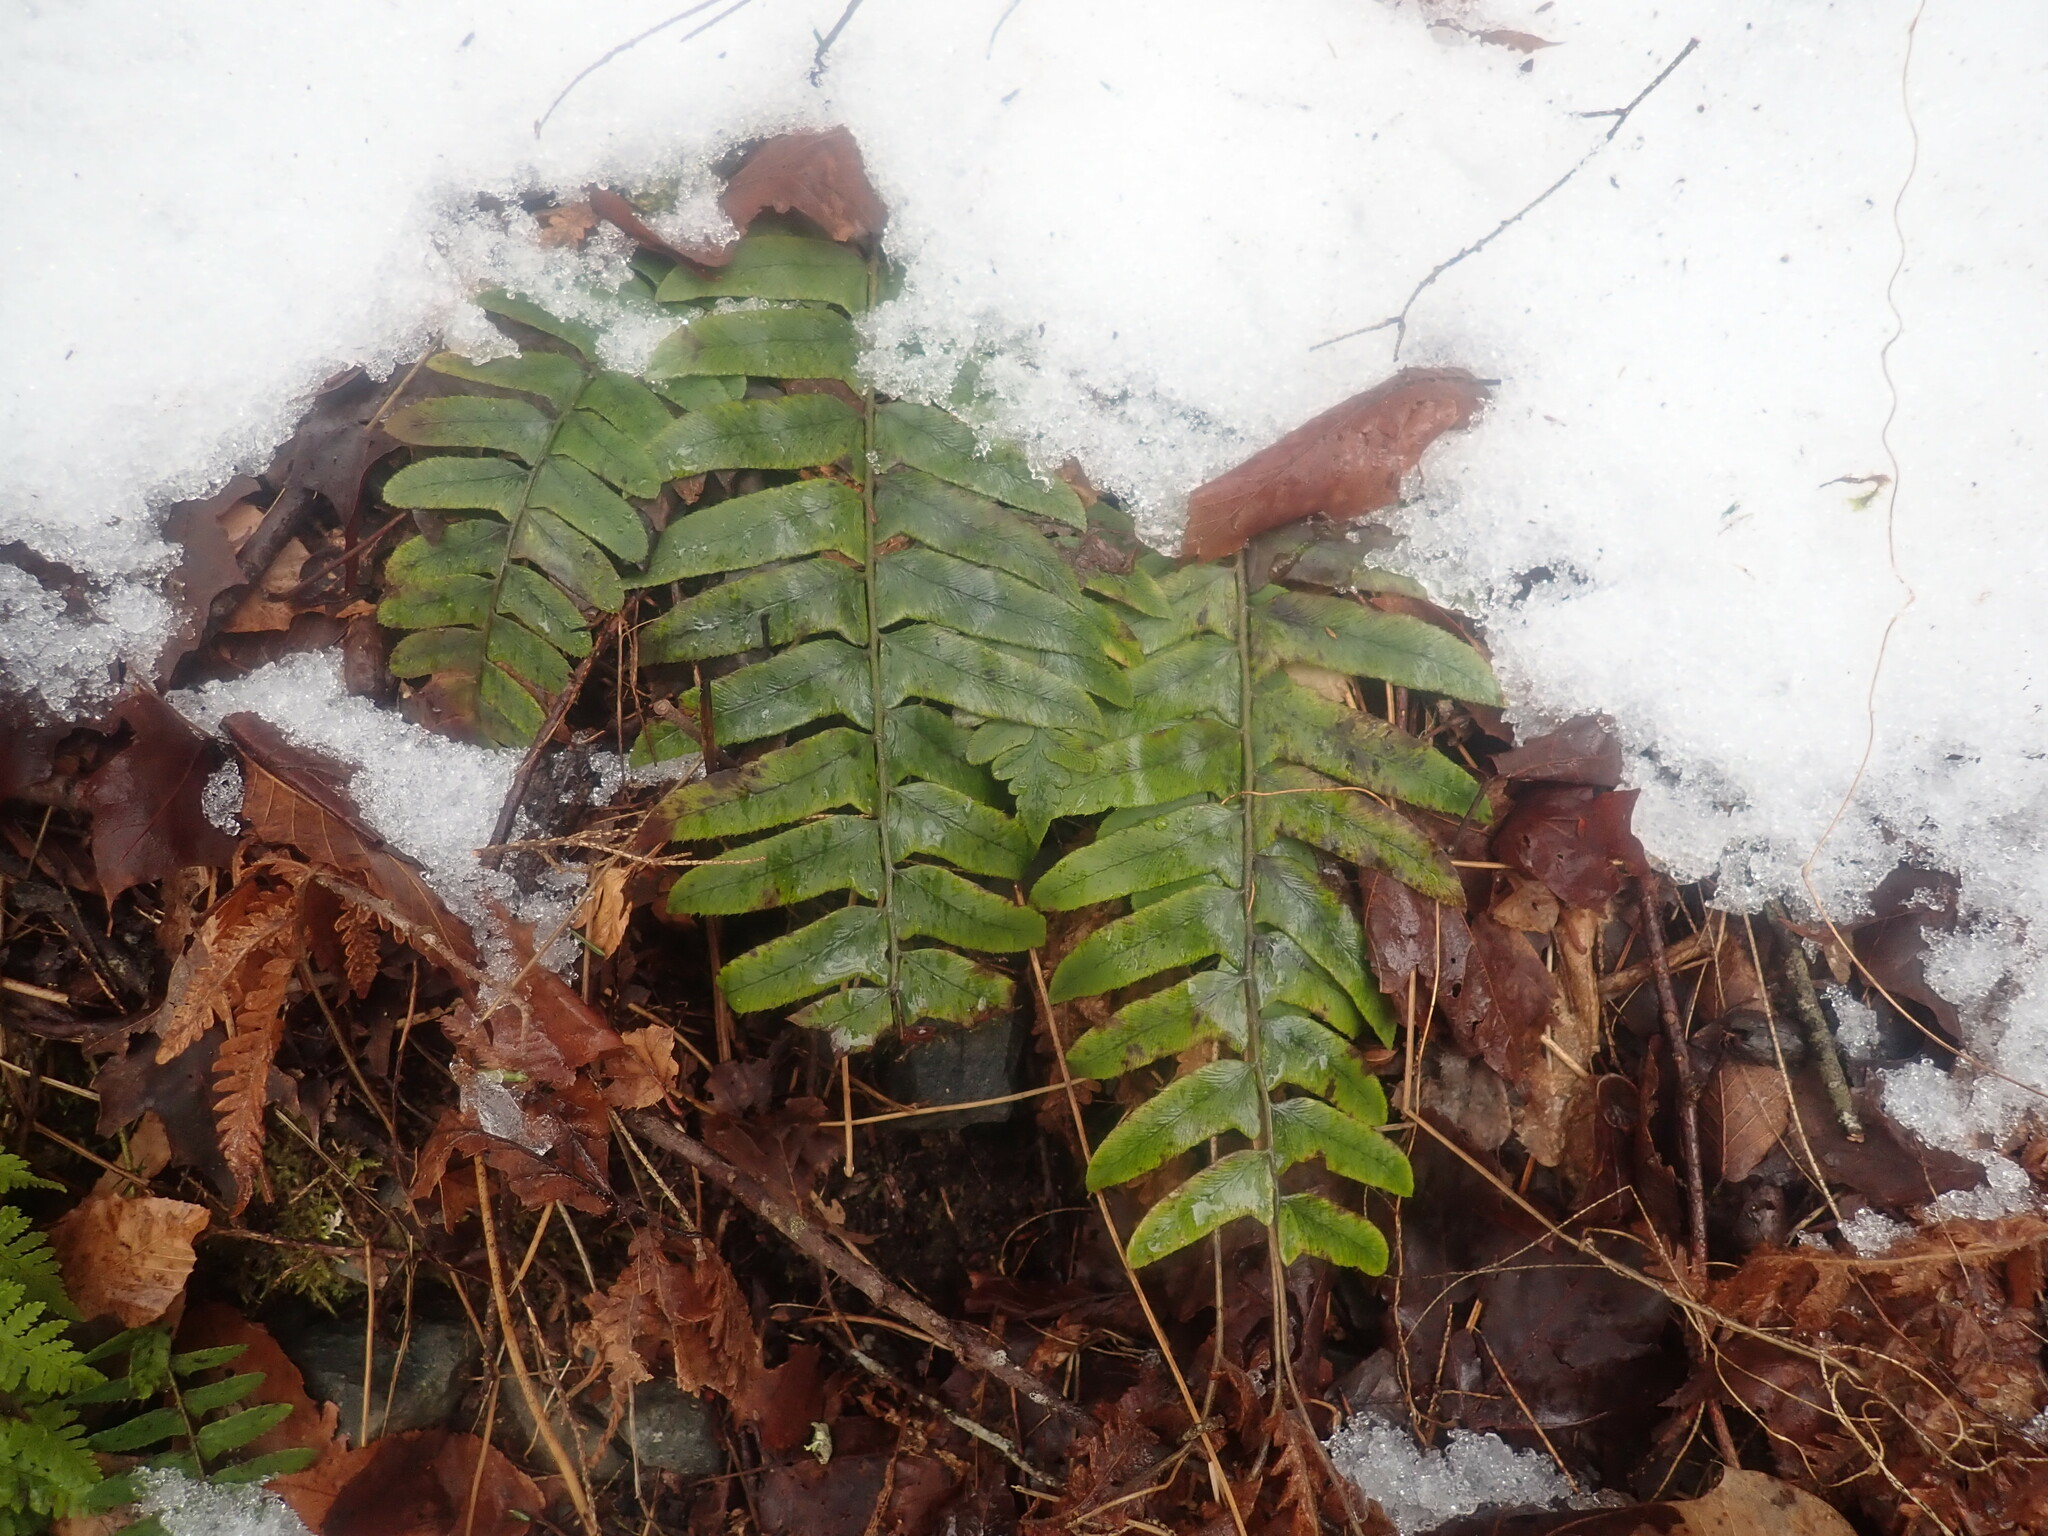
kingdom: Plantae
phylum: Tracheophyta
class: Polypodiopsida
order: Polypodiales
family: Dryopteridaceae
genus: Polystichum
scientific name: Polystichum acrostichoides
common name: Christmas fern
